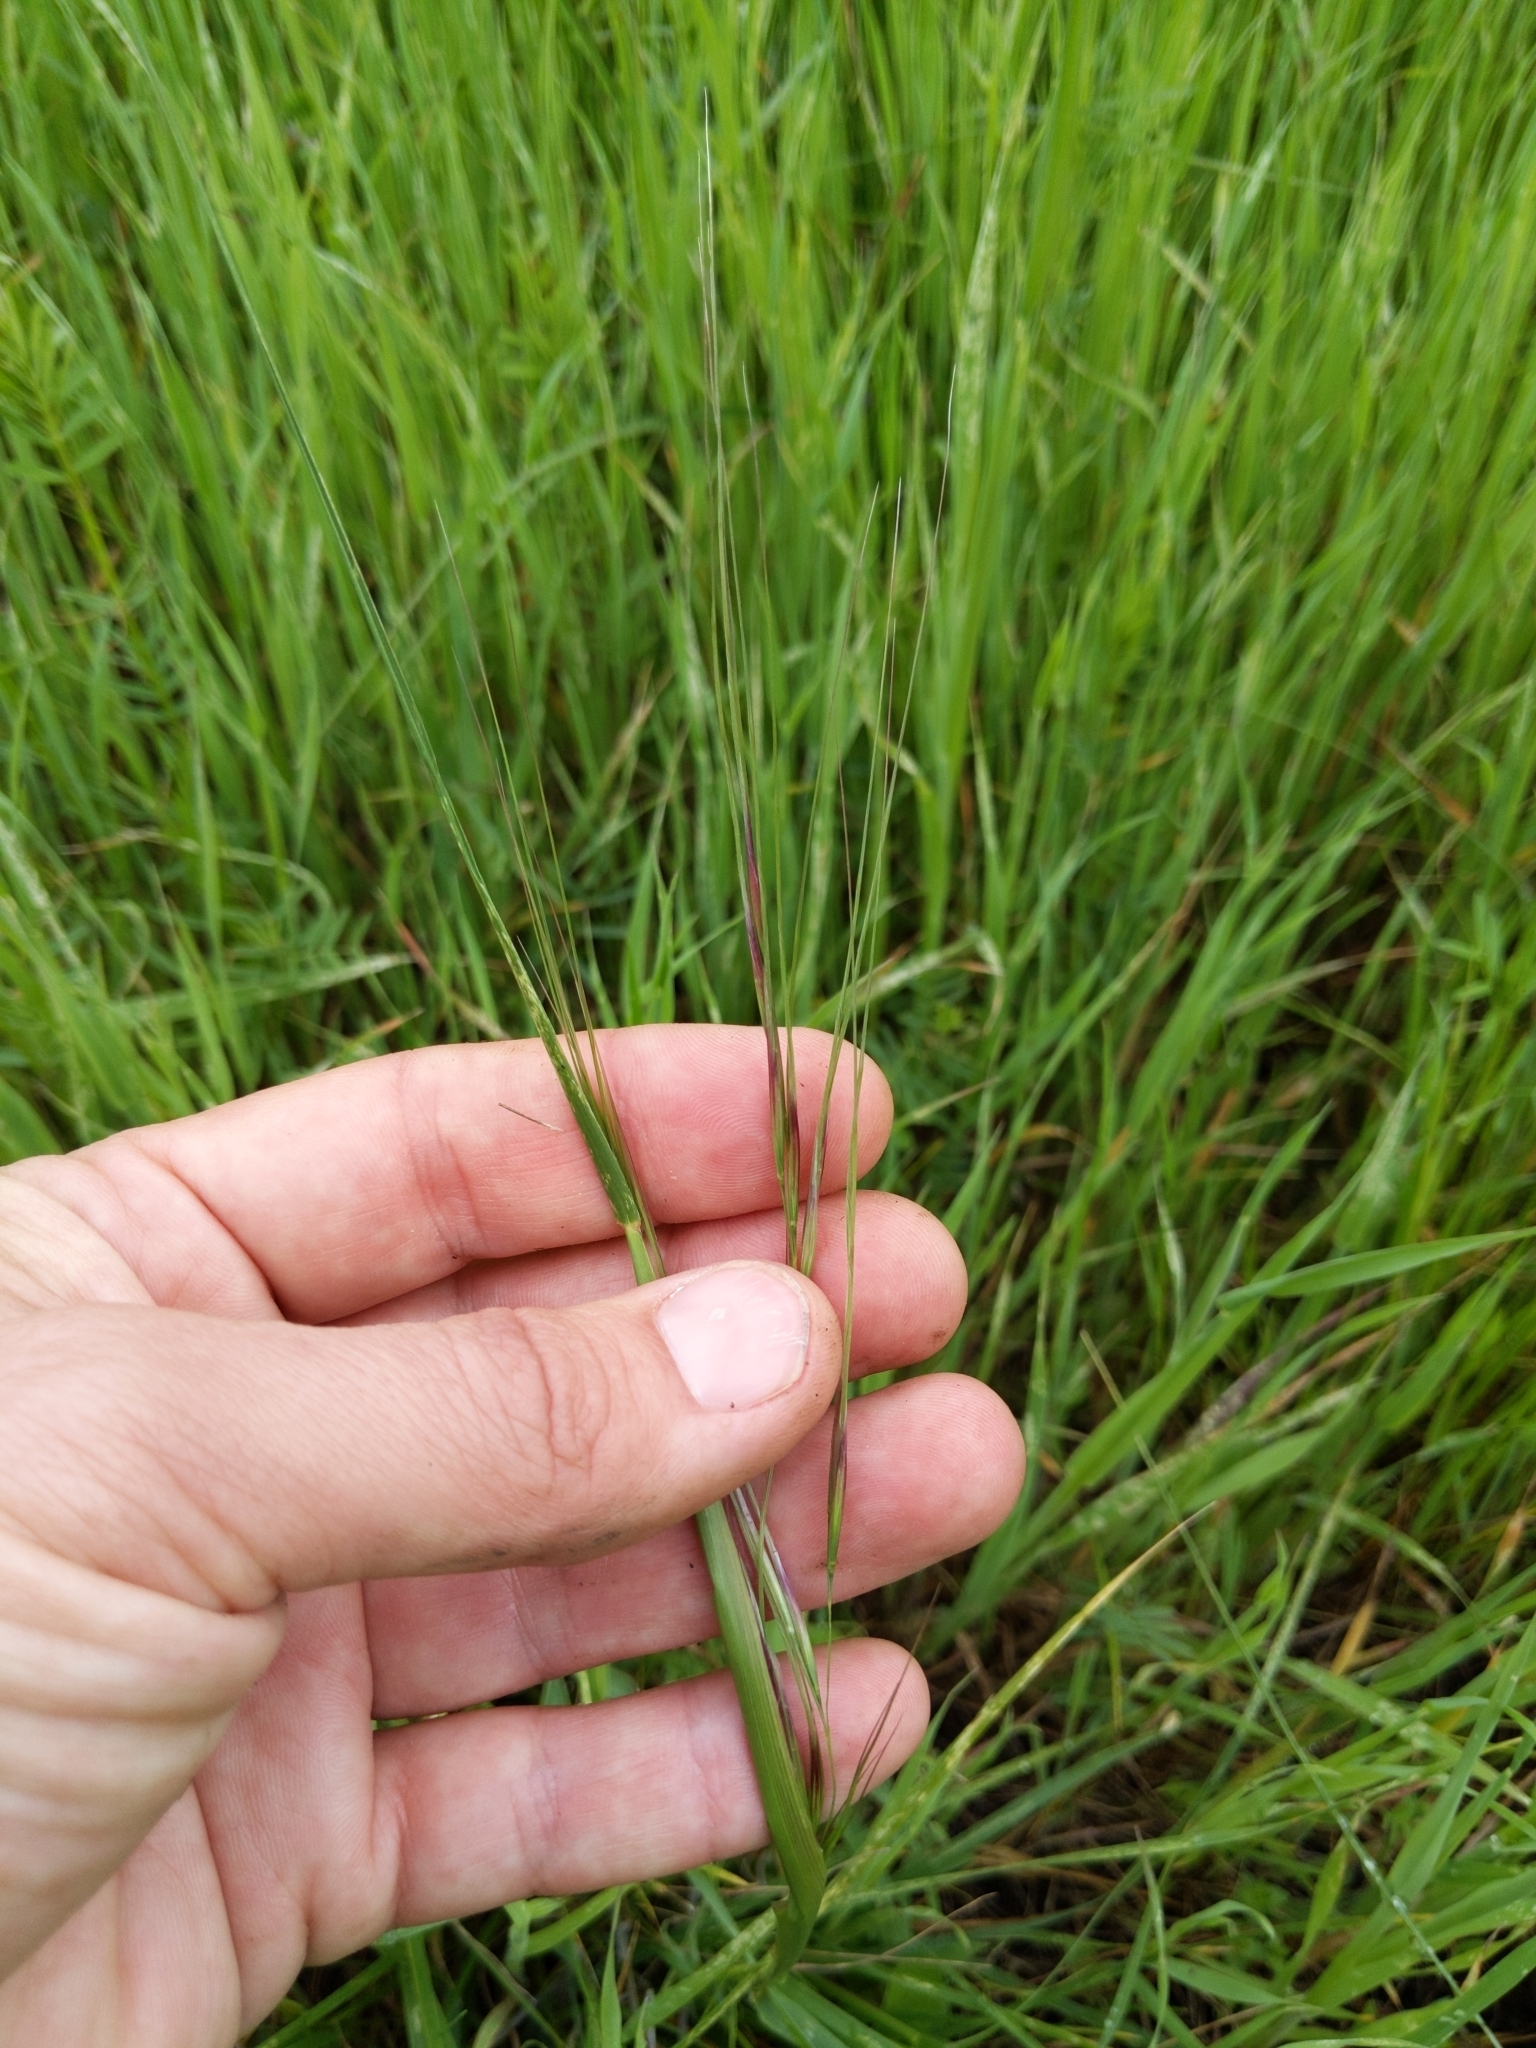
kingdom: Plantae
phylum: Tracheophyta
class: Liliopsida
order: Poales
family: Poaceae
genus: Nassella
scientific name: Nassella pulchra
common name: Purple needlegrass
